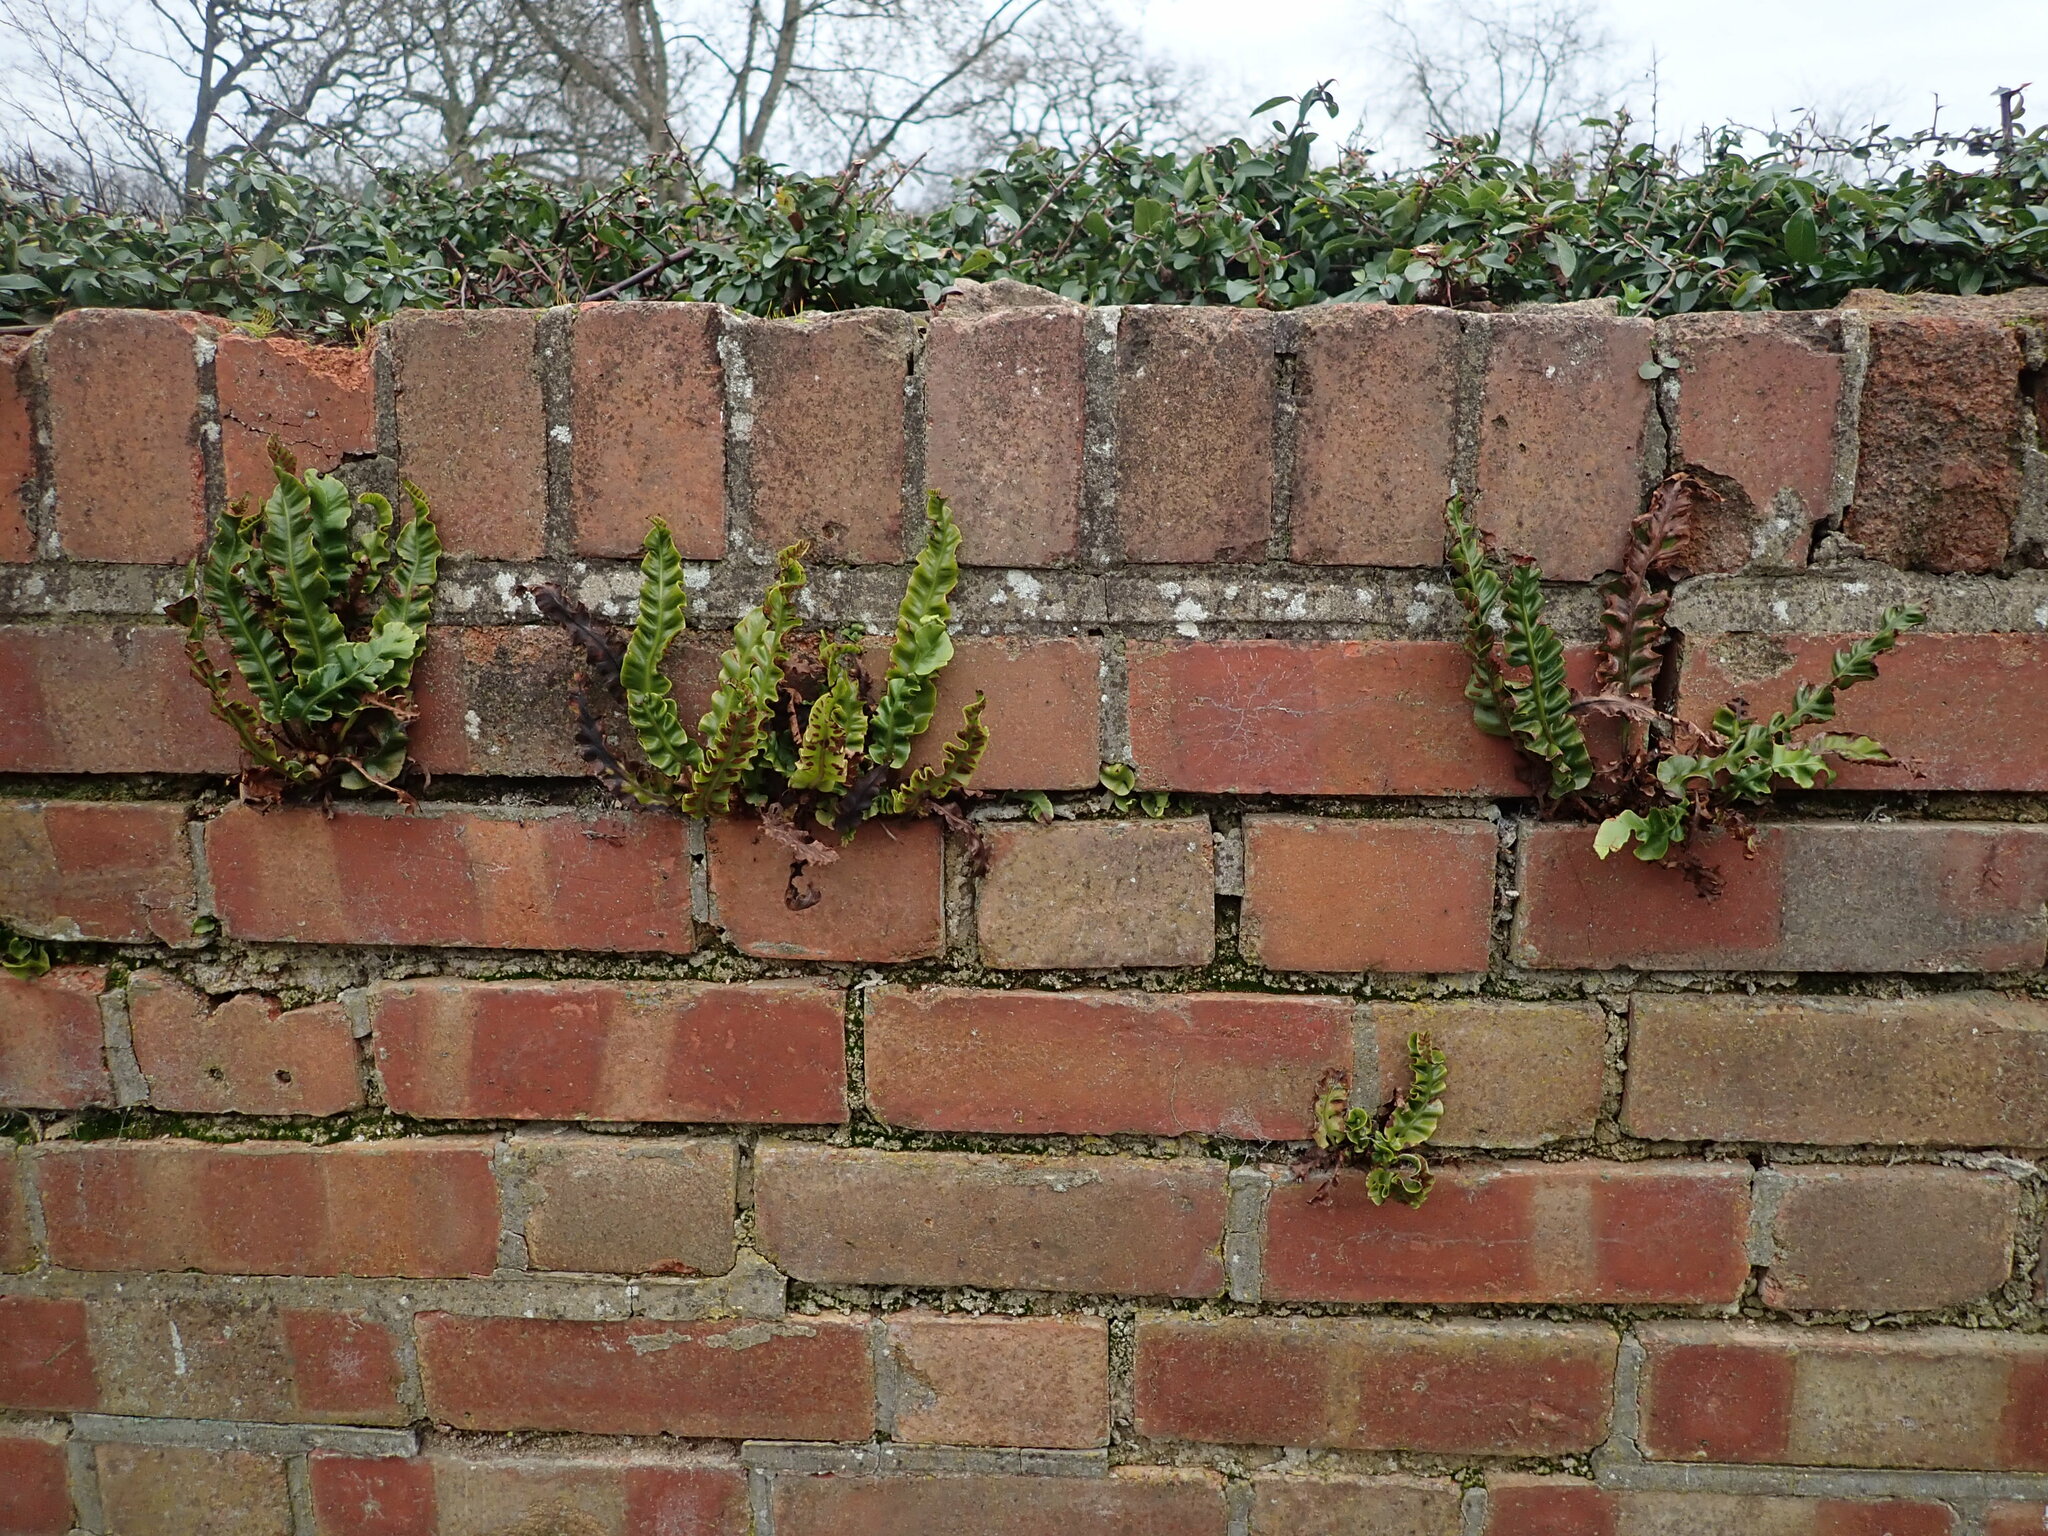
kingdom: Plantae
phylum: Tracheophyta
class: Polypodiopsida
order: Polypodiales
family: Aspleniaceae
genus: Asplenium
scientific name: Asplenium scolopendrium
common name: Hart's-tongue fern
